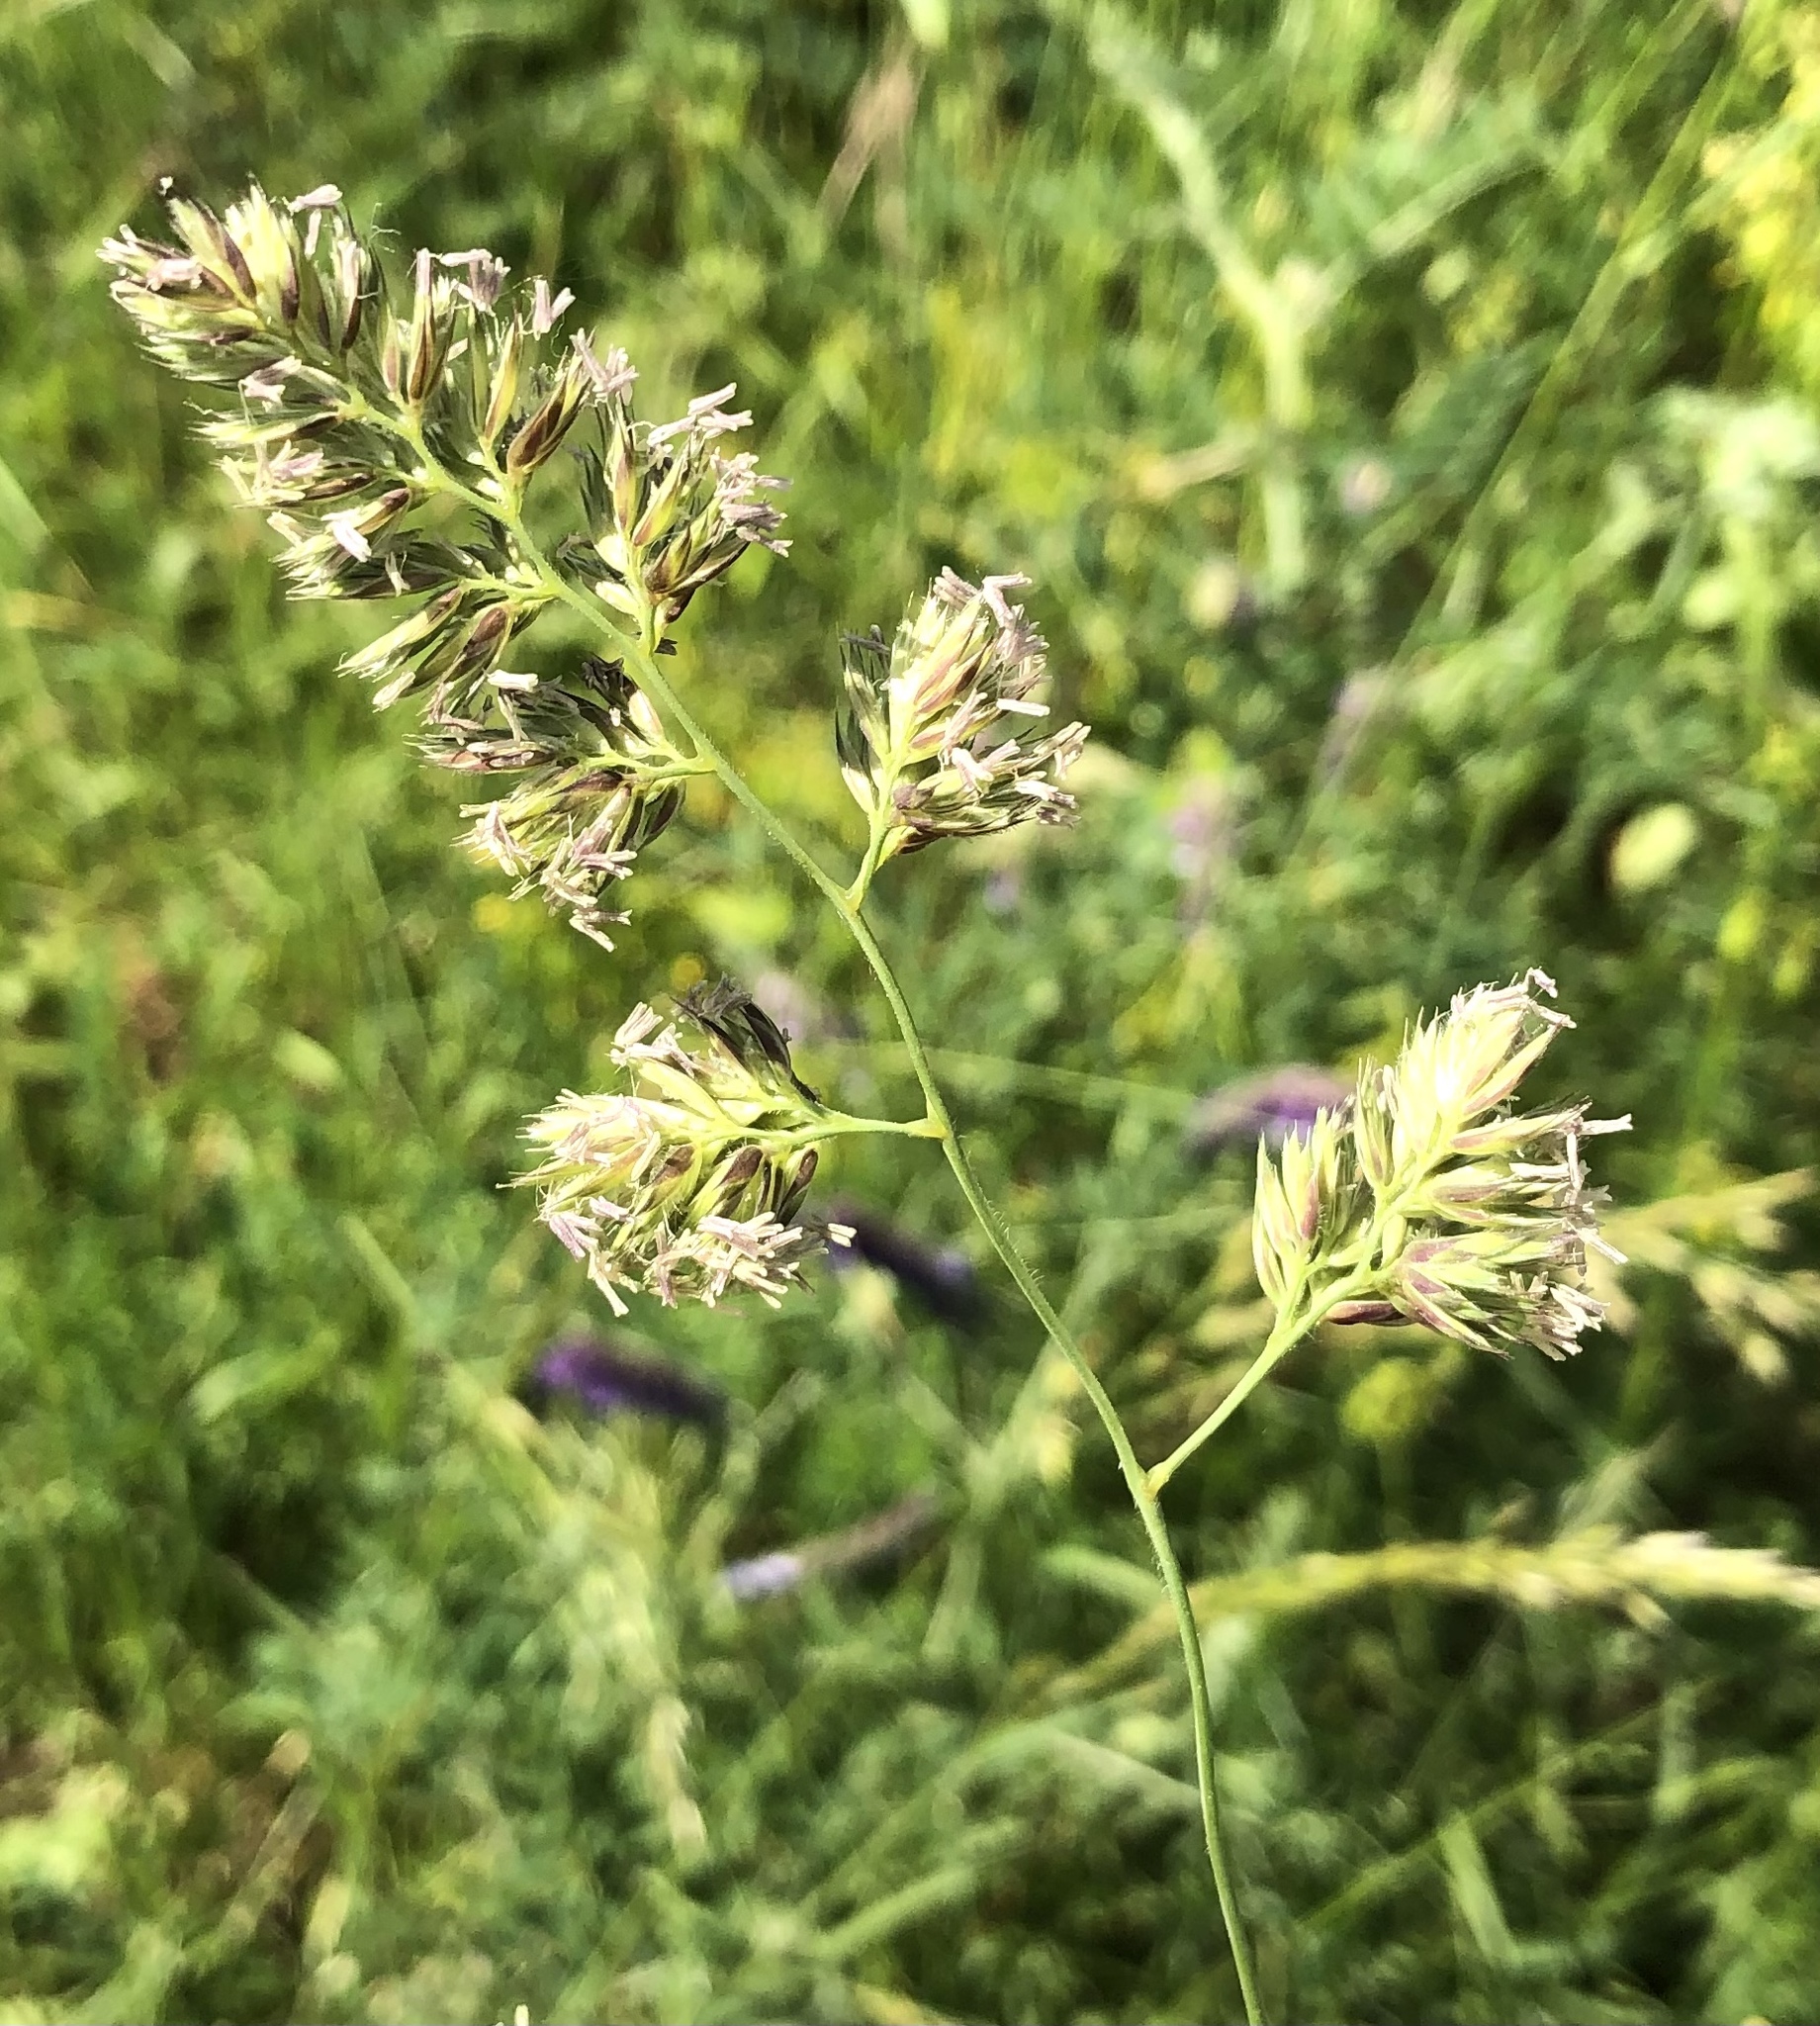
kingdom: Plantae
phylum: Tracheophyta
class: Liliopsida
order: Poales
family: Poaceae
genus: Dactylis
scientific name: Dactylis glomerata
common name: Orchardgrass
